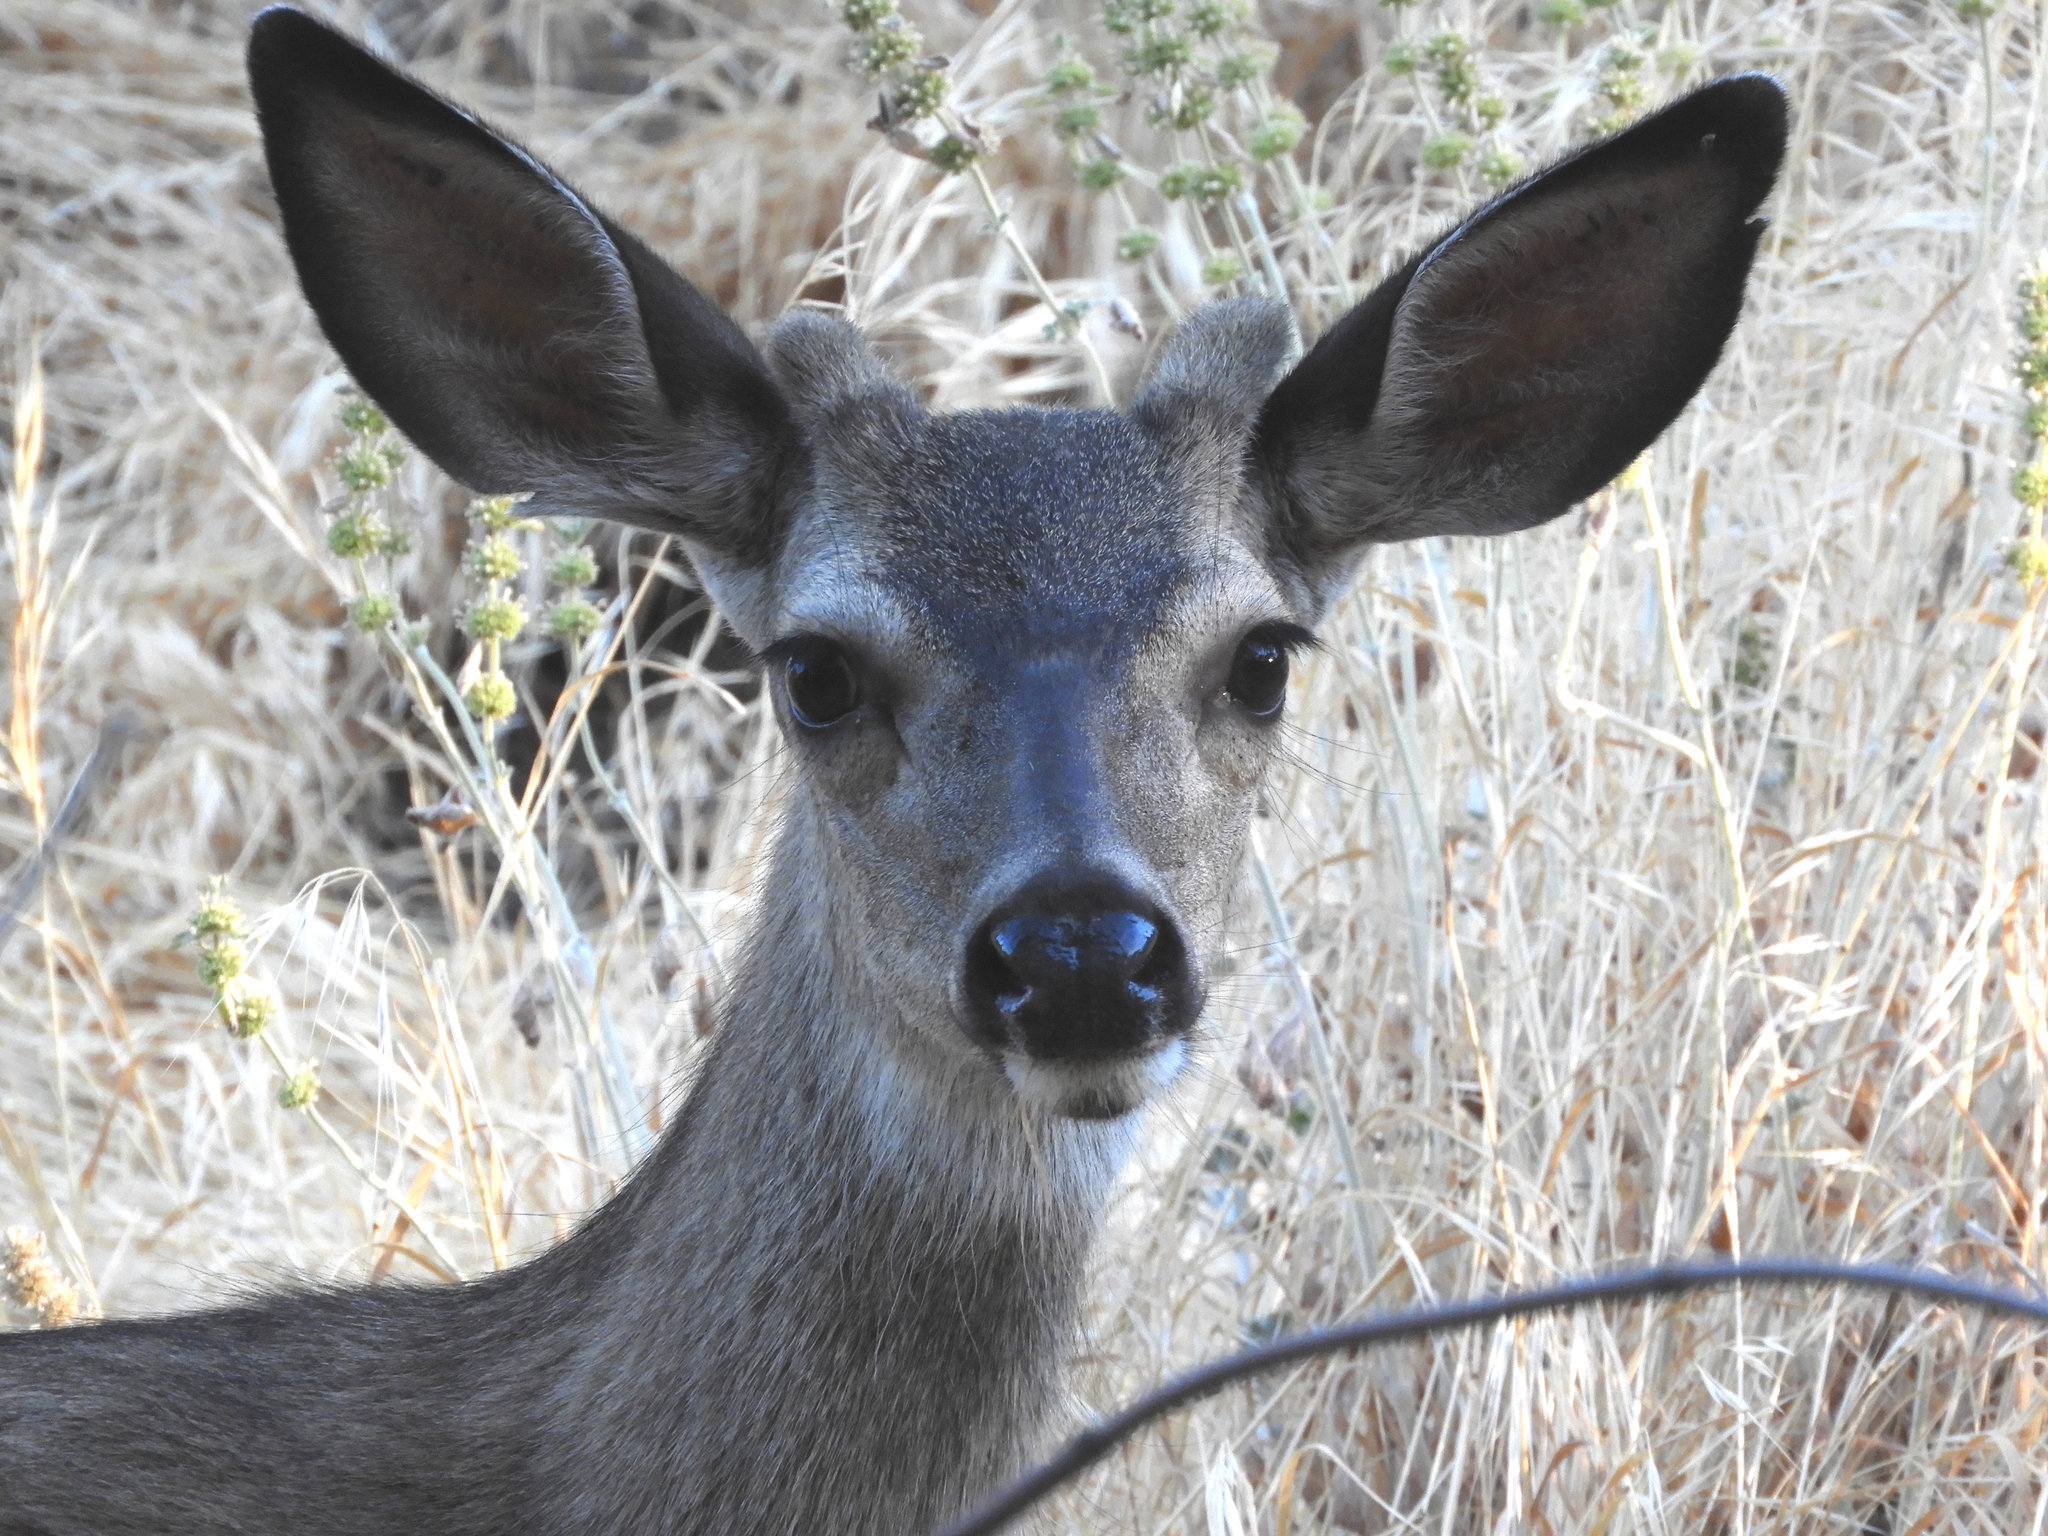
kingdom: Animalia
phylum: Chordata
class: Mammalia
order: Artiodactyla
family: Cervidae
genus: Odocoileus
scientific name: Odocoileus hemionus
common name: Mule deer
